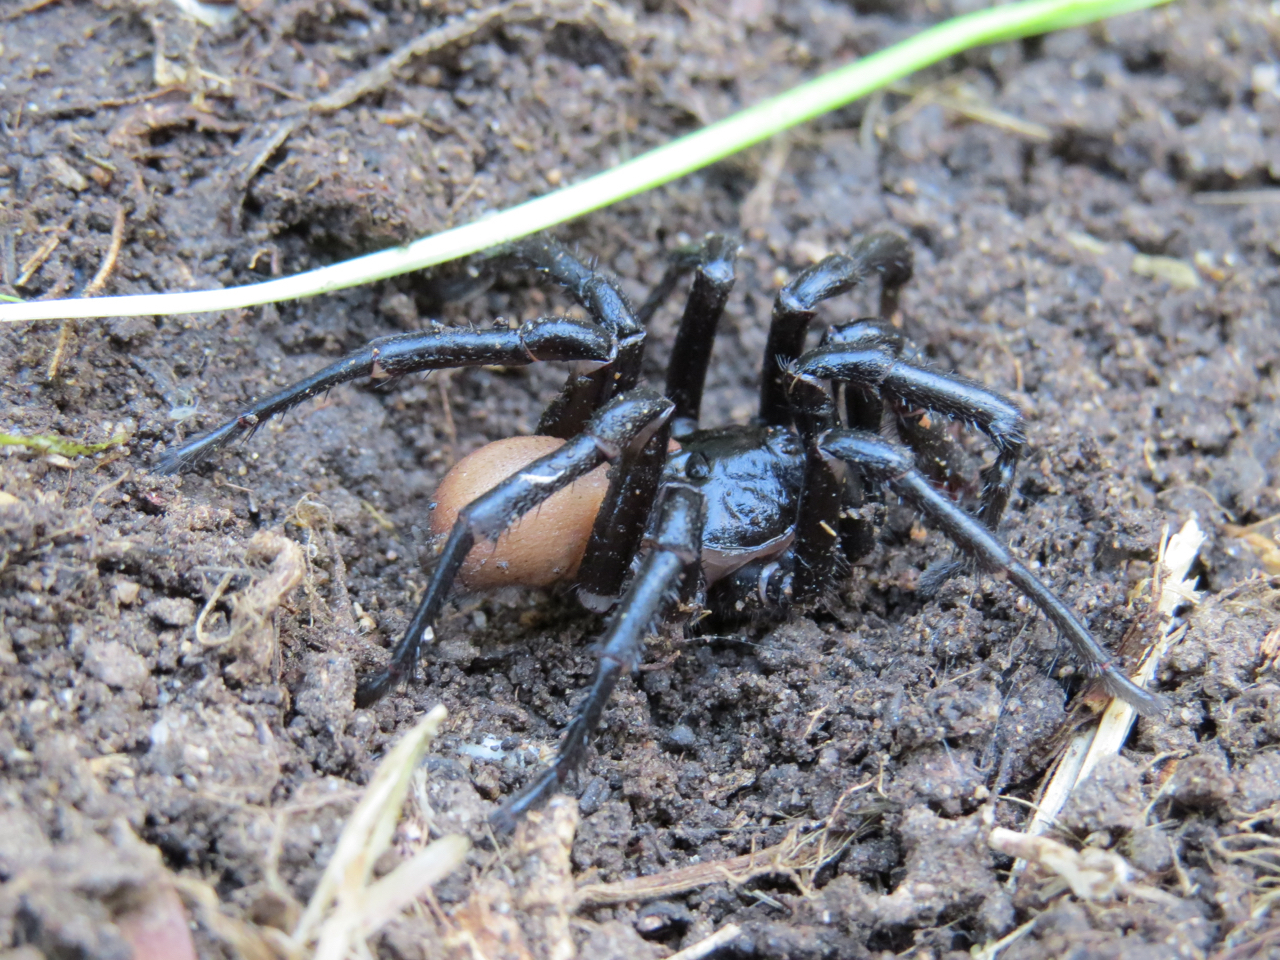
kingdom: Animalia
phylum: Arthropoda
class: Arachnida
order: Araneae
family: Halonoproctidae
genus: Bothriocyrtum
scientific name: Bothriocyrtum californicum
